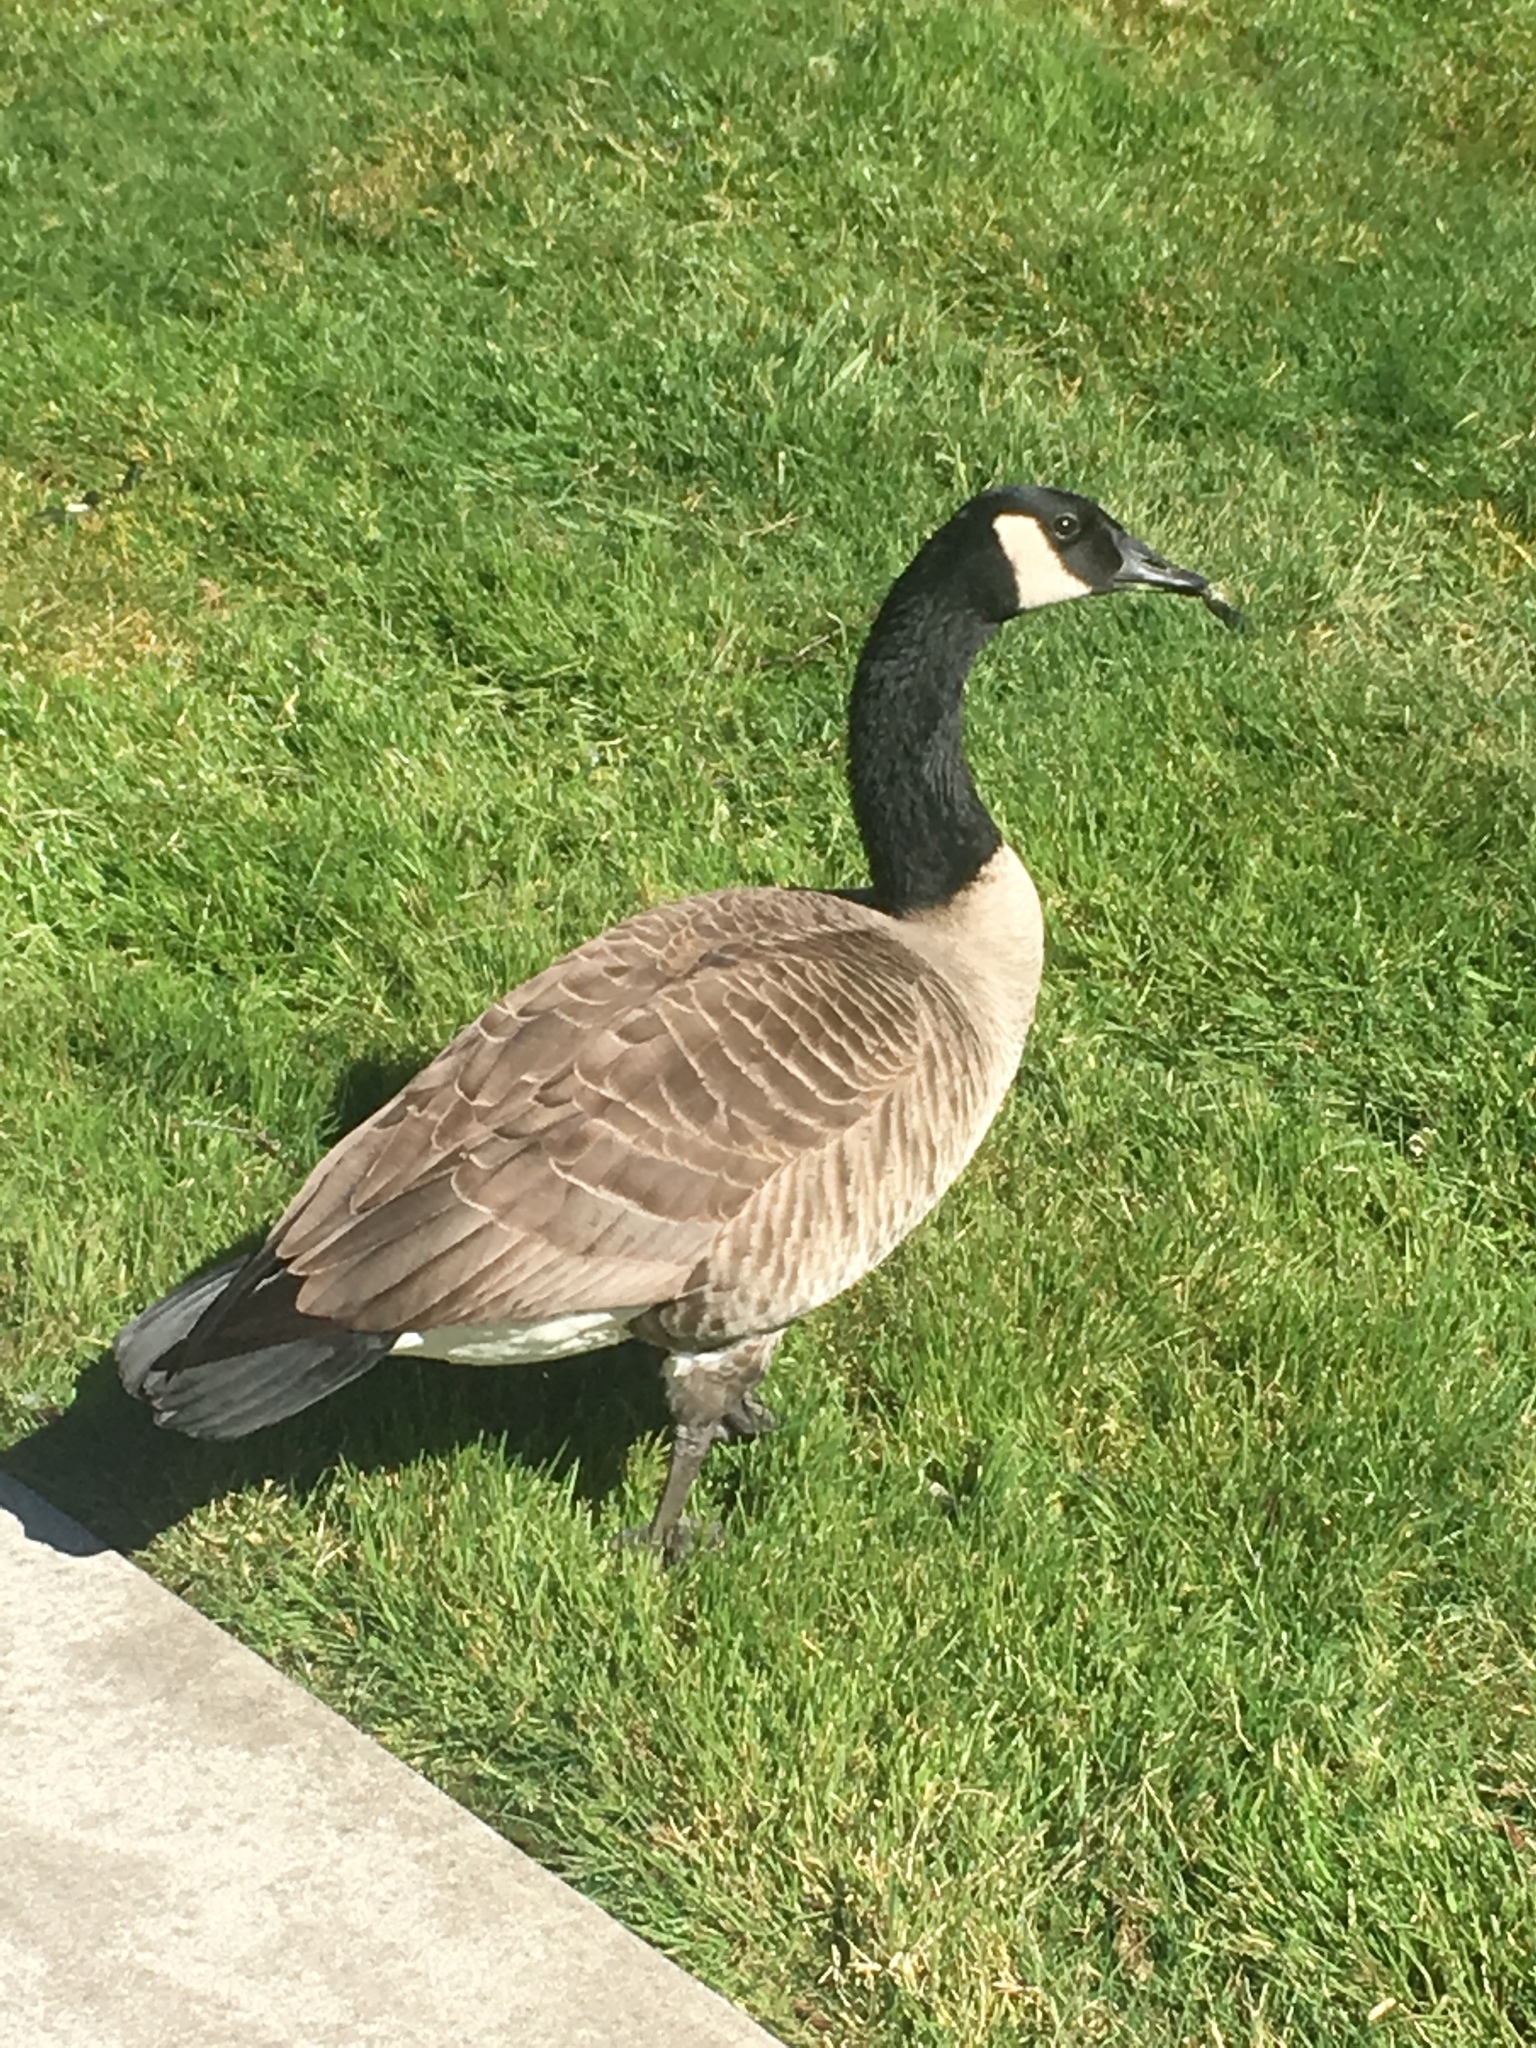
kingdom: Animalia
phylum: Chordata
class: Aves
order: Anseriformes
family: Anatidae
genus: Branta
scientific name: Branta canadensis
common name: Canada goose
